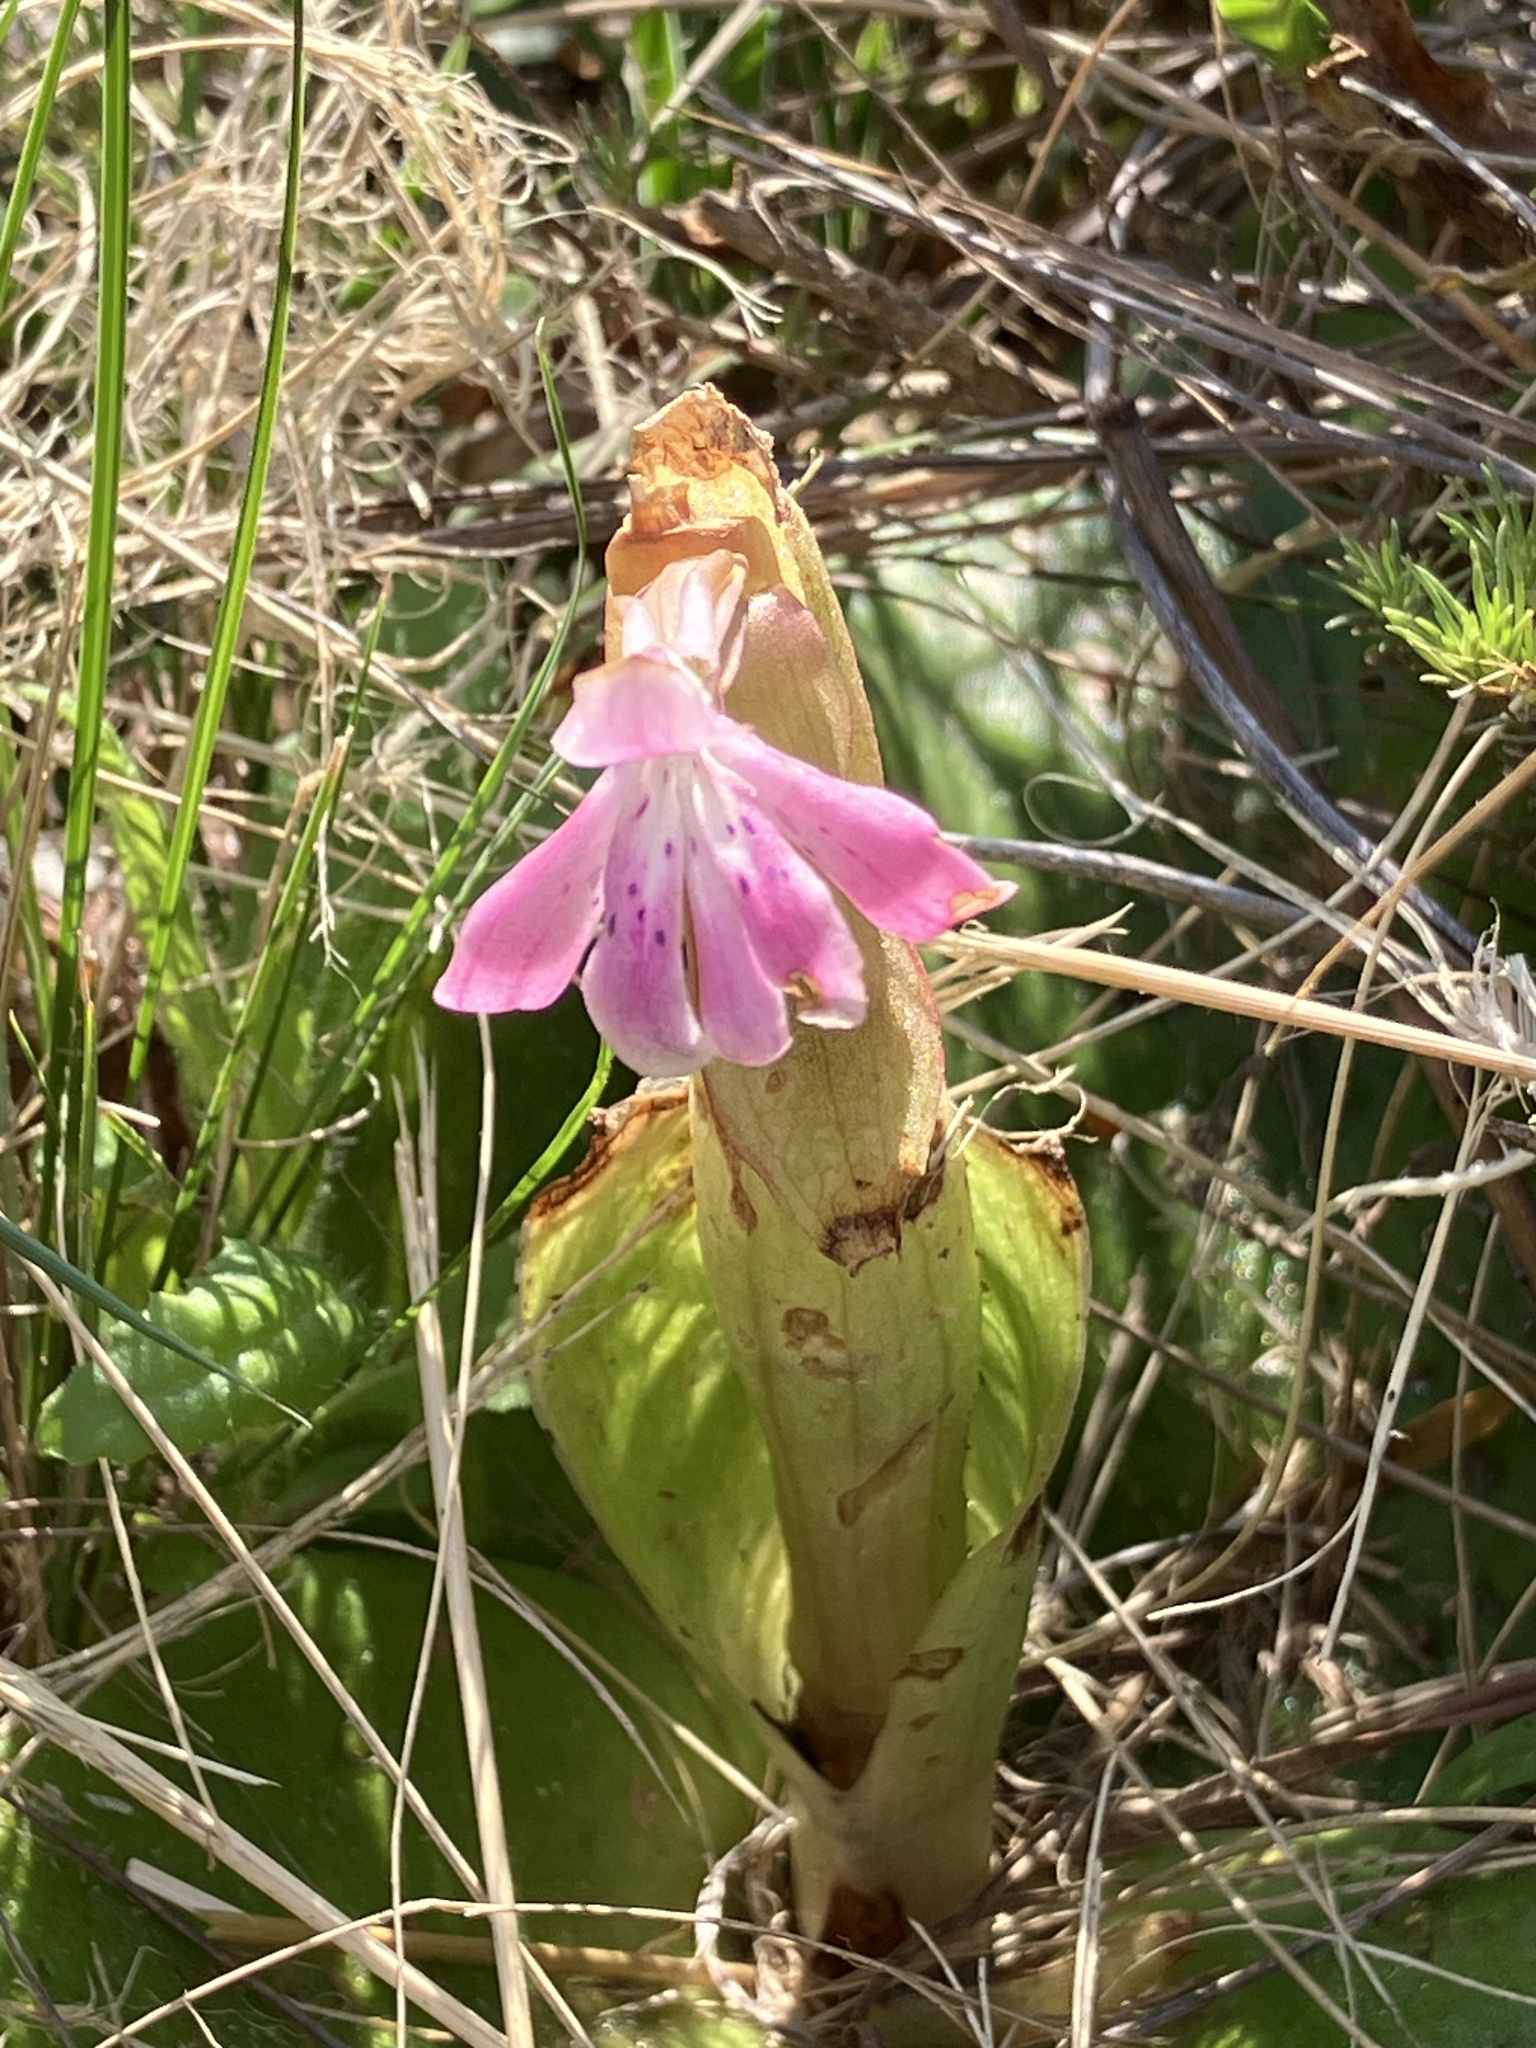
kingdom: Plantae
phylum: Tracheophyta
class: Liliopsida
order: Asparagales
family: Orchidaceae
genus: Satyrium
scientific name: Satyrium erectum
